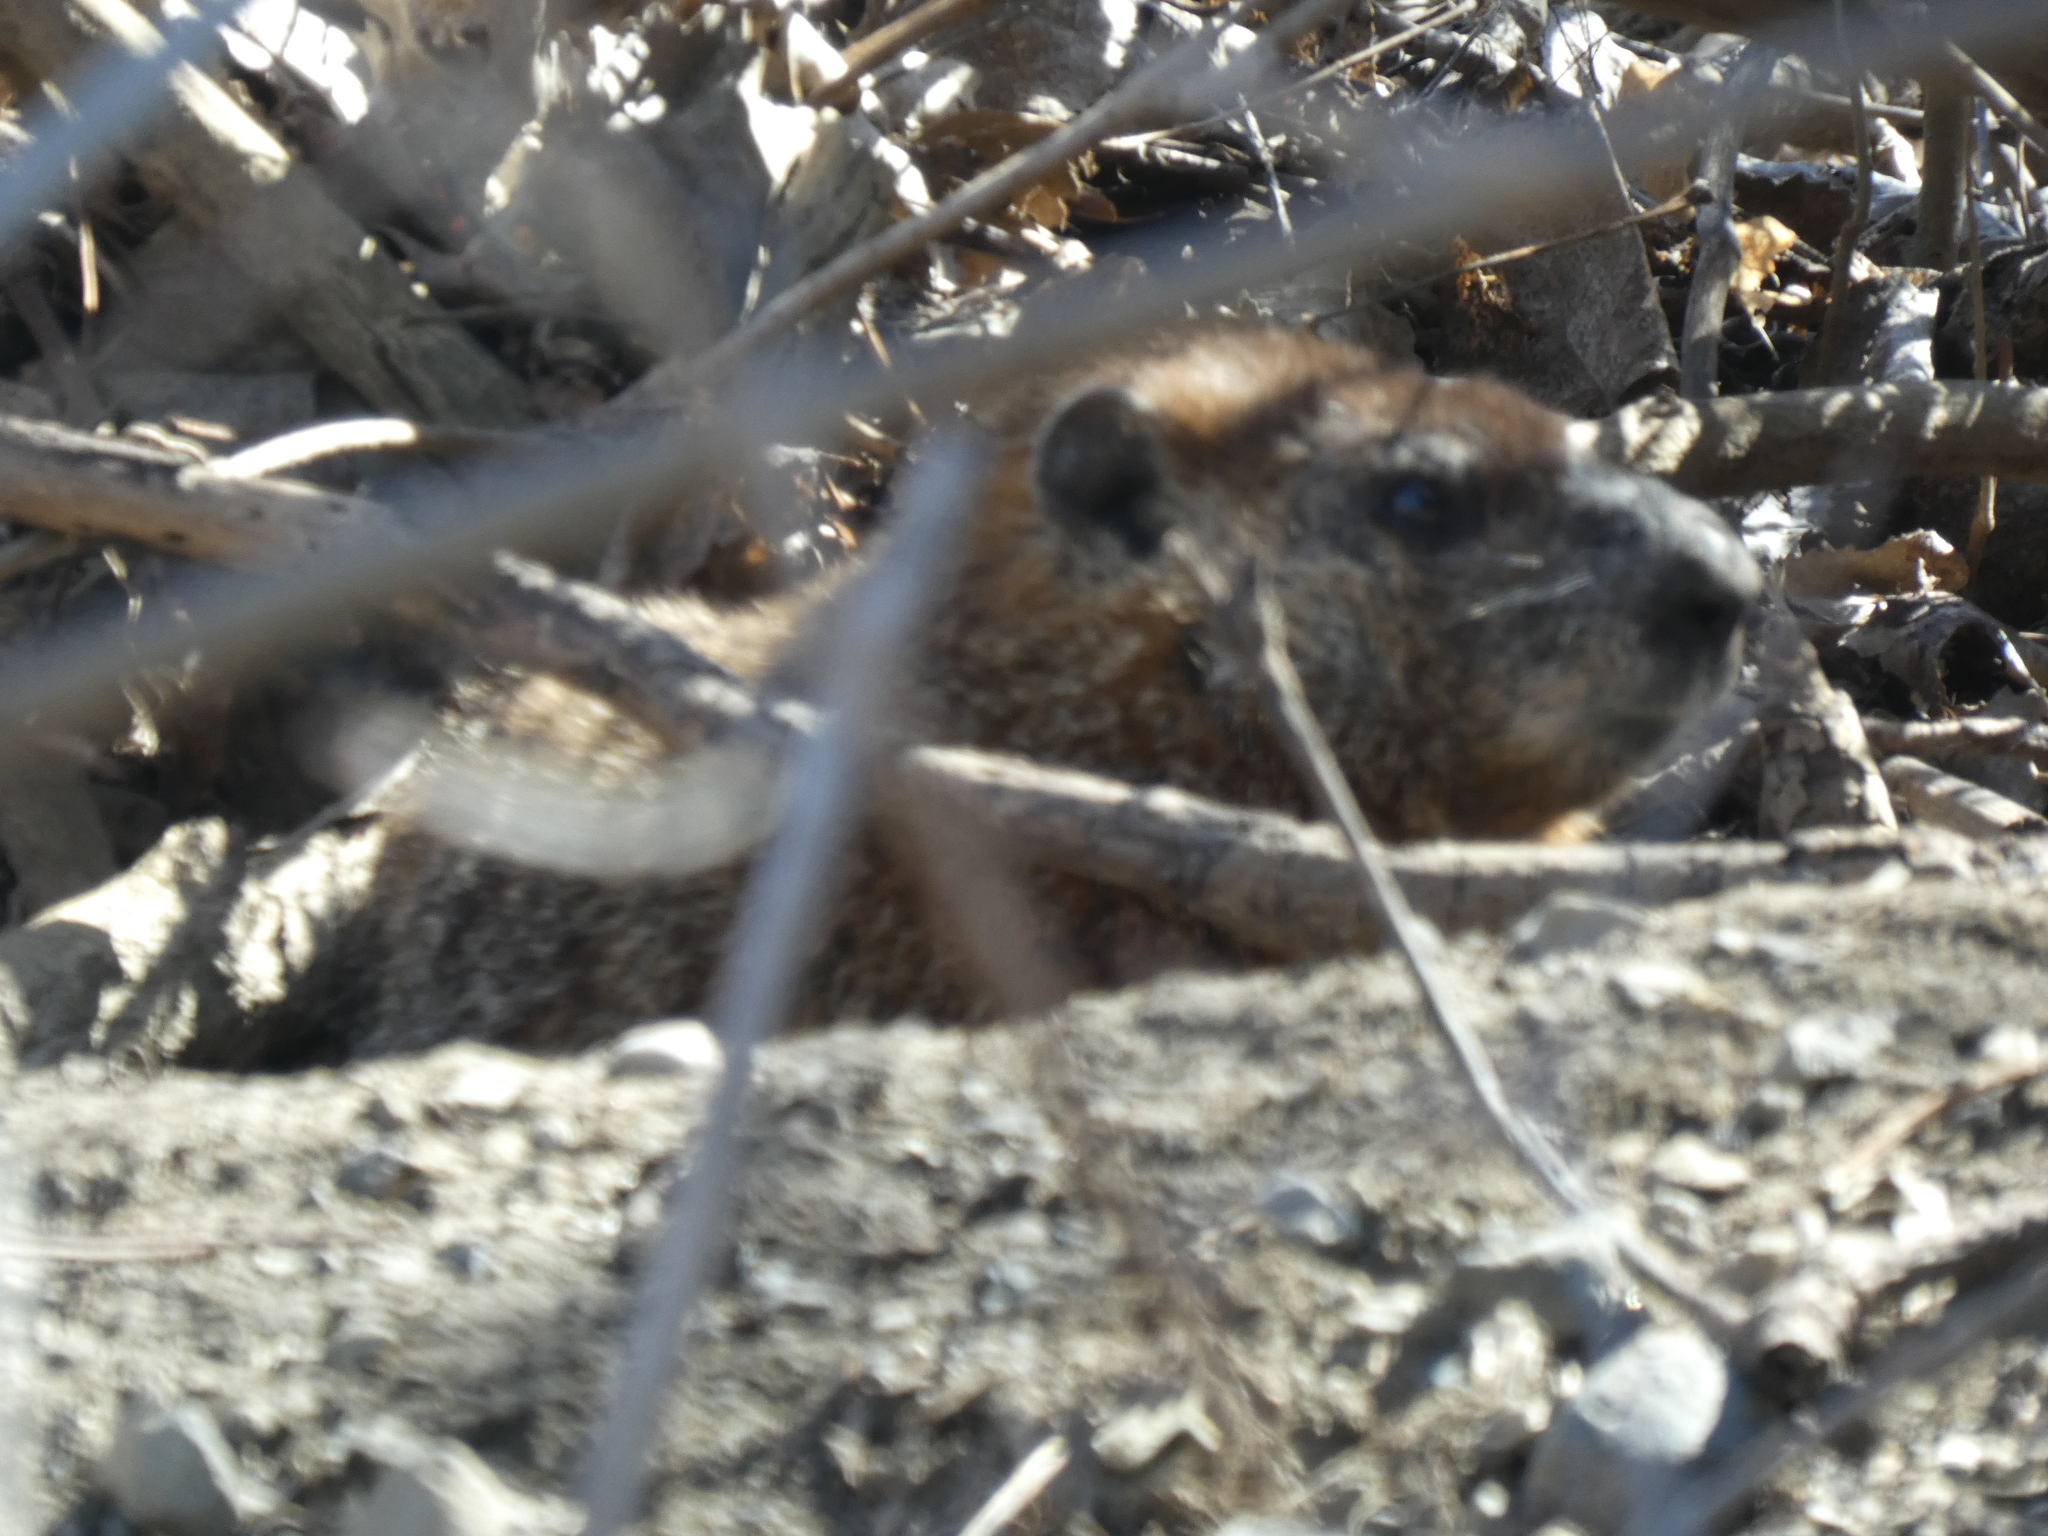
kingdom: Animalia
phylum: Chordata
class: Mammalia
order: Rodentia
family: Sciuridae
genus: Marmota
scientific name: Marmota monax
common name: Groundhog
